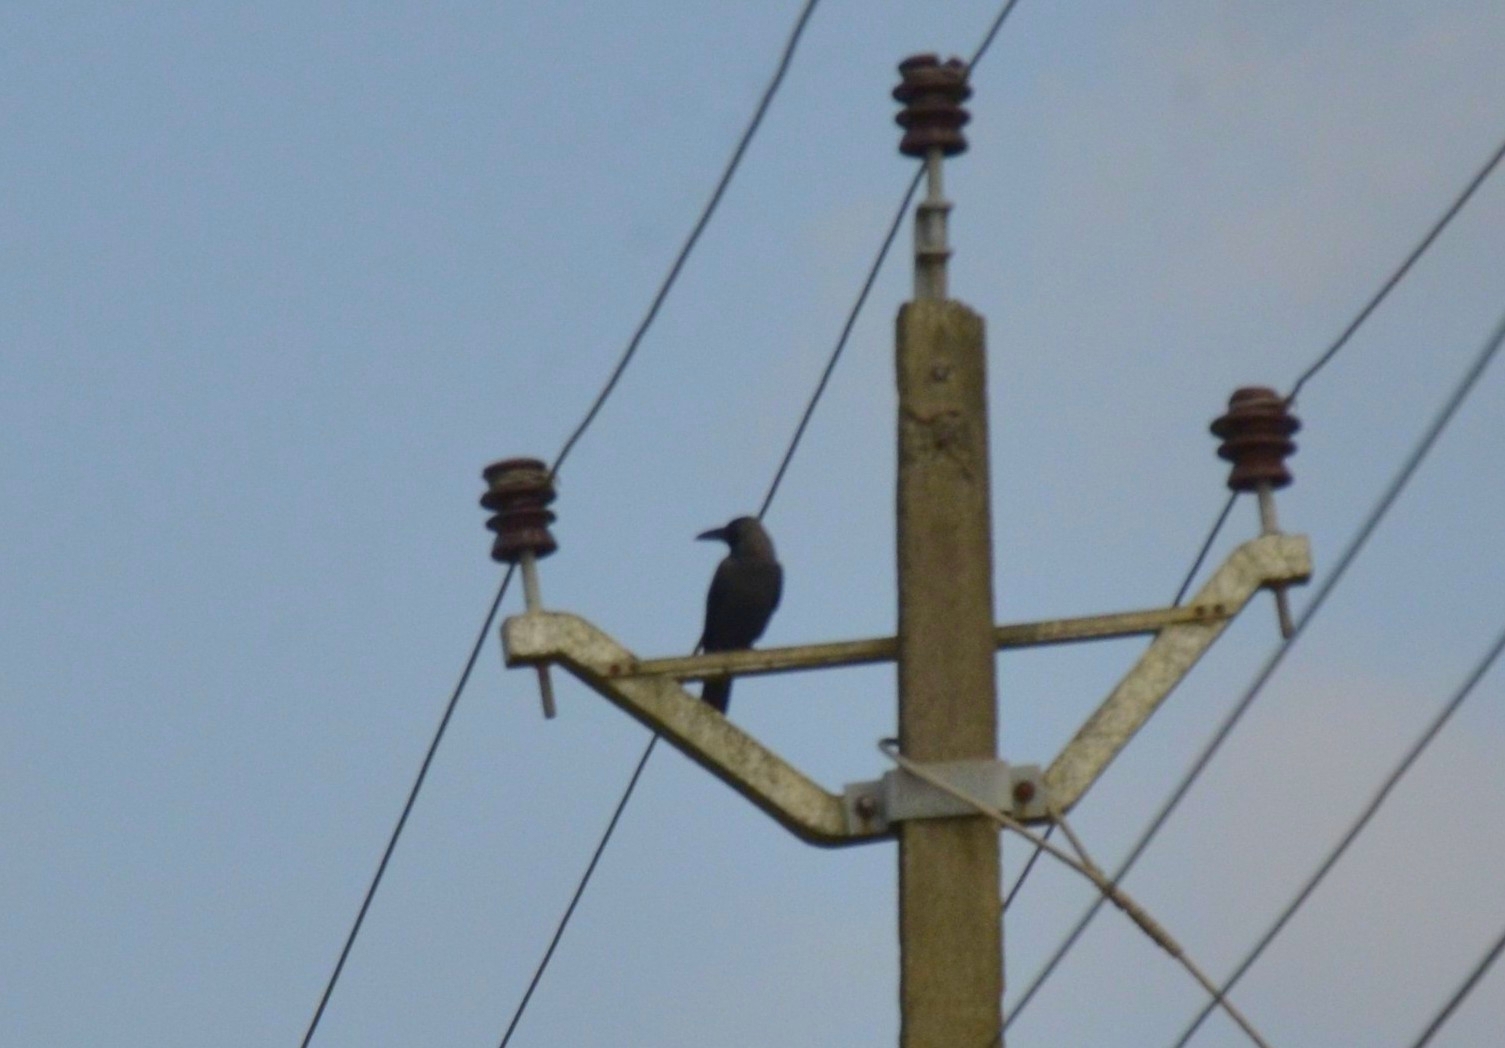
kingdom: Animalia
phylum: Chordata
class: Aves
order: Passeriformes
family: Corvidae
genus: Corvus
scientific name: Corvus splendens
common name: House crow
